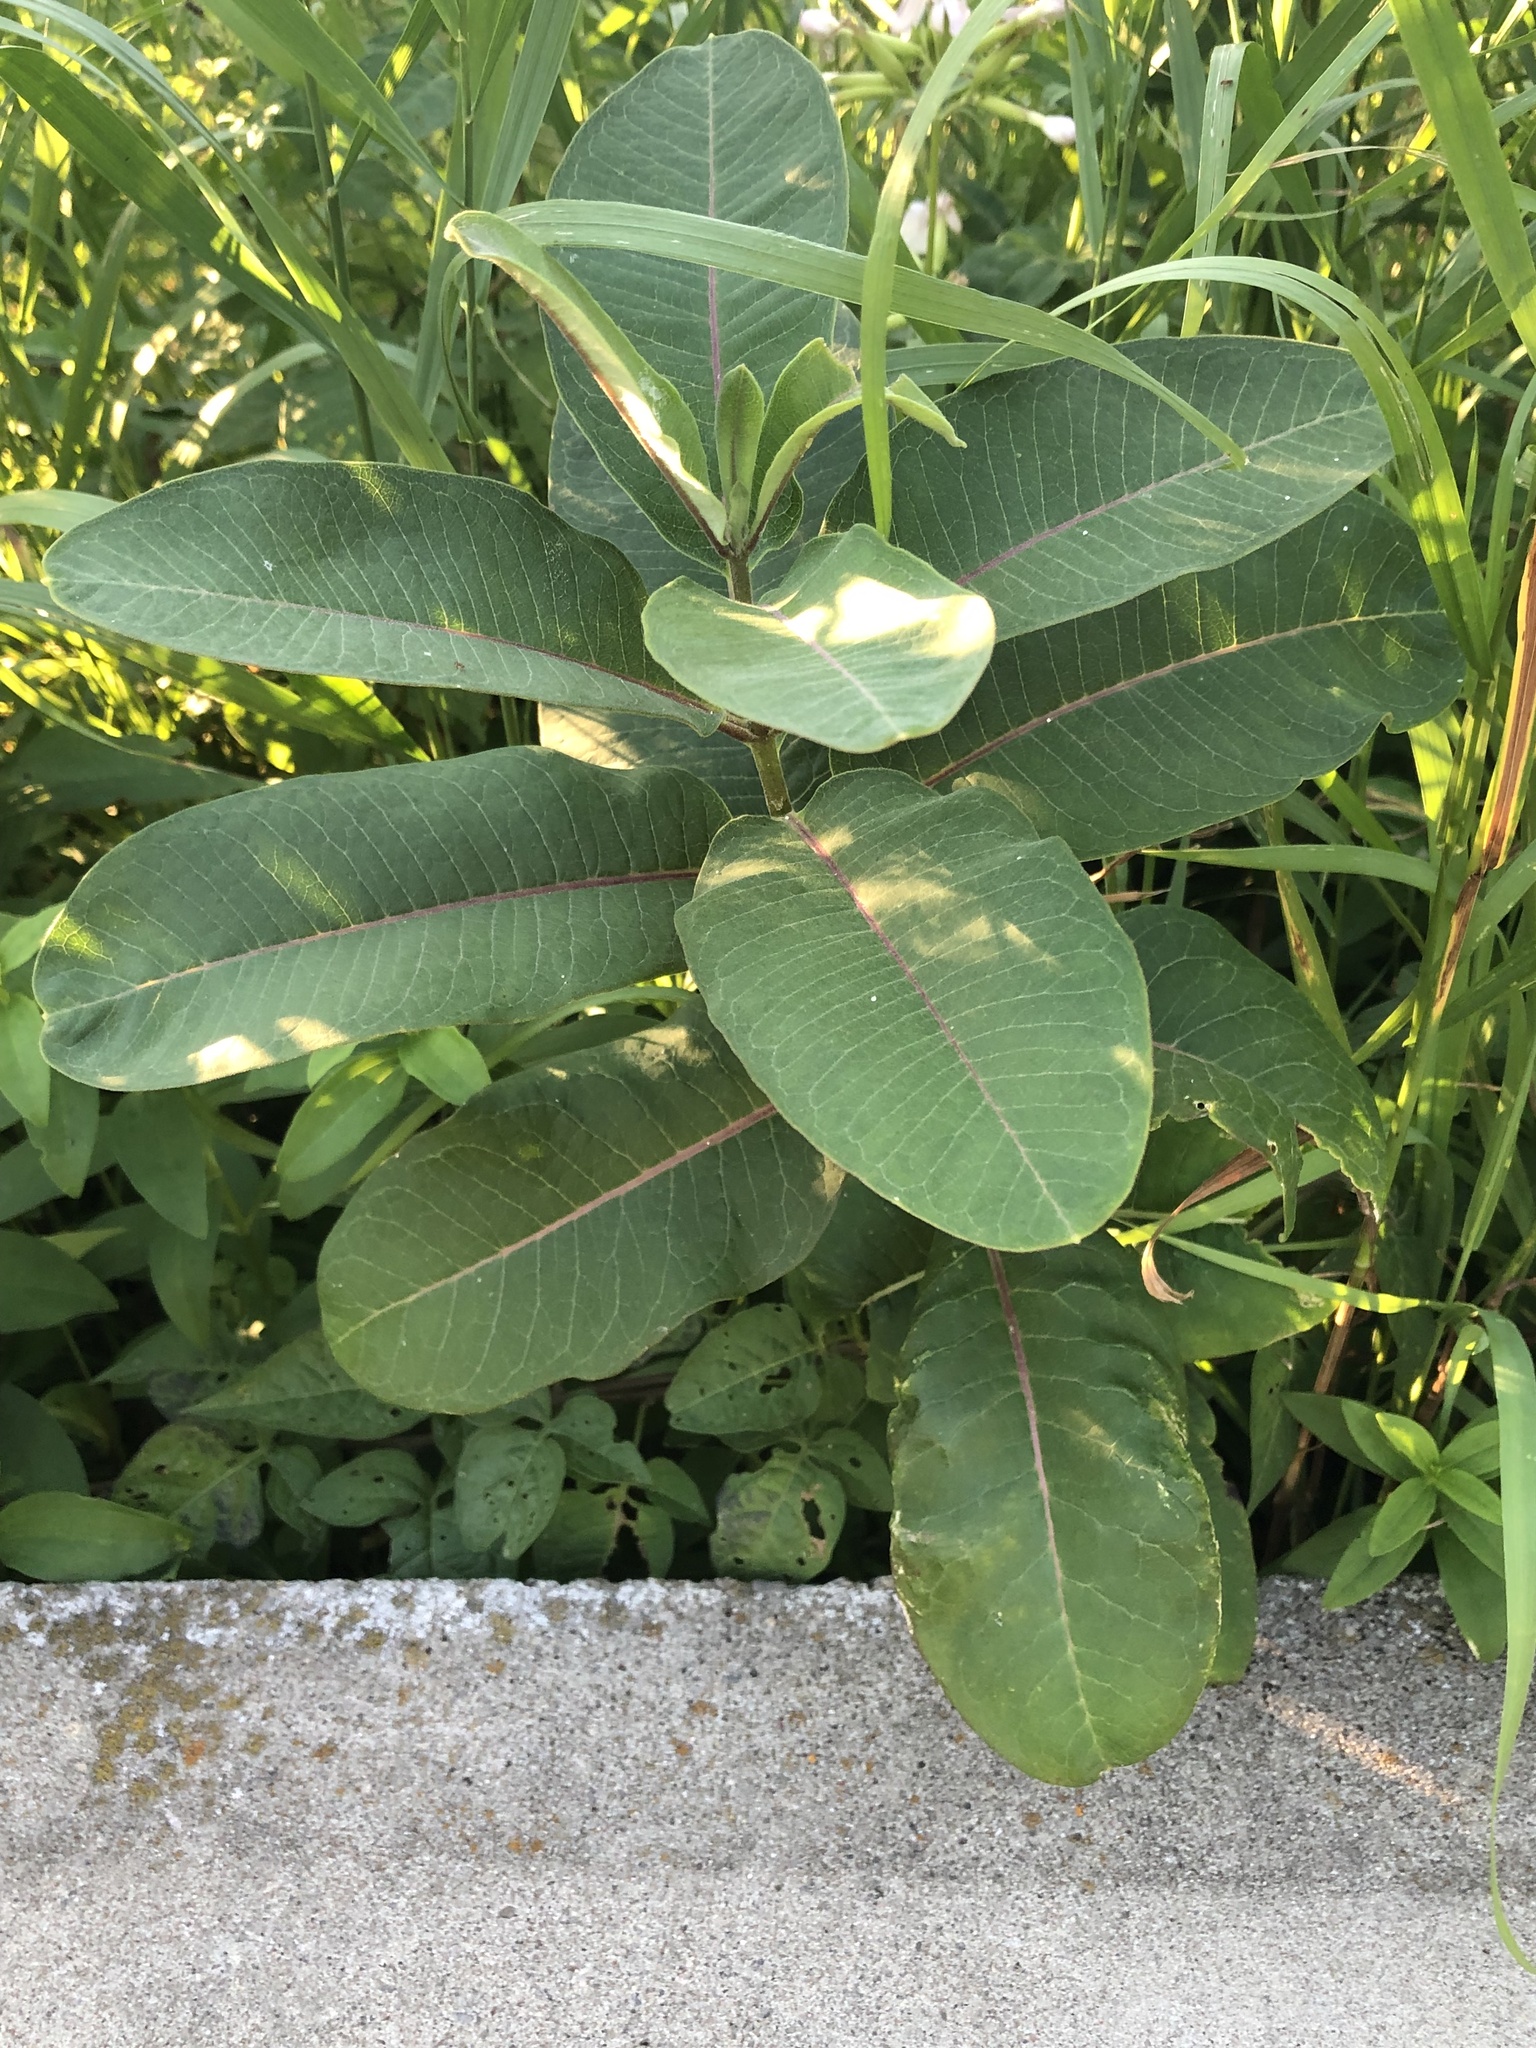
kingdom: Plantae
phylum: Tracheophyta
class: Magnoliopsida
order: Gentianales
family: Apocynaceae
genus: Asclepias
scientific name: Asclepias syriaca
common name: Common milkweed
